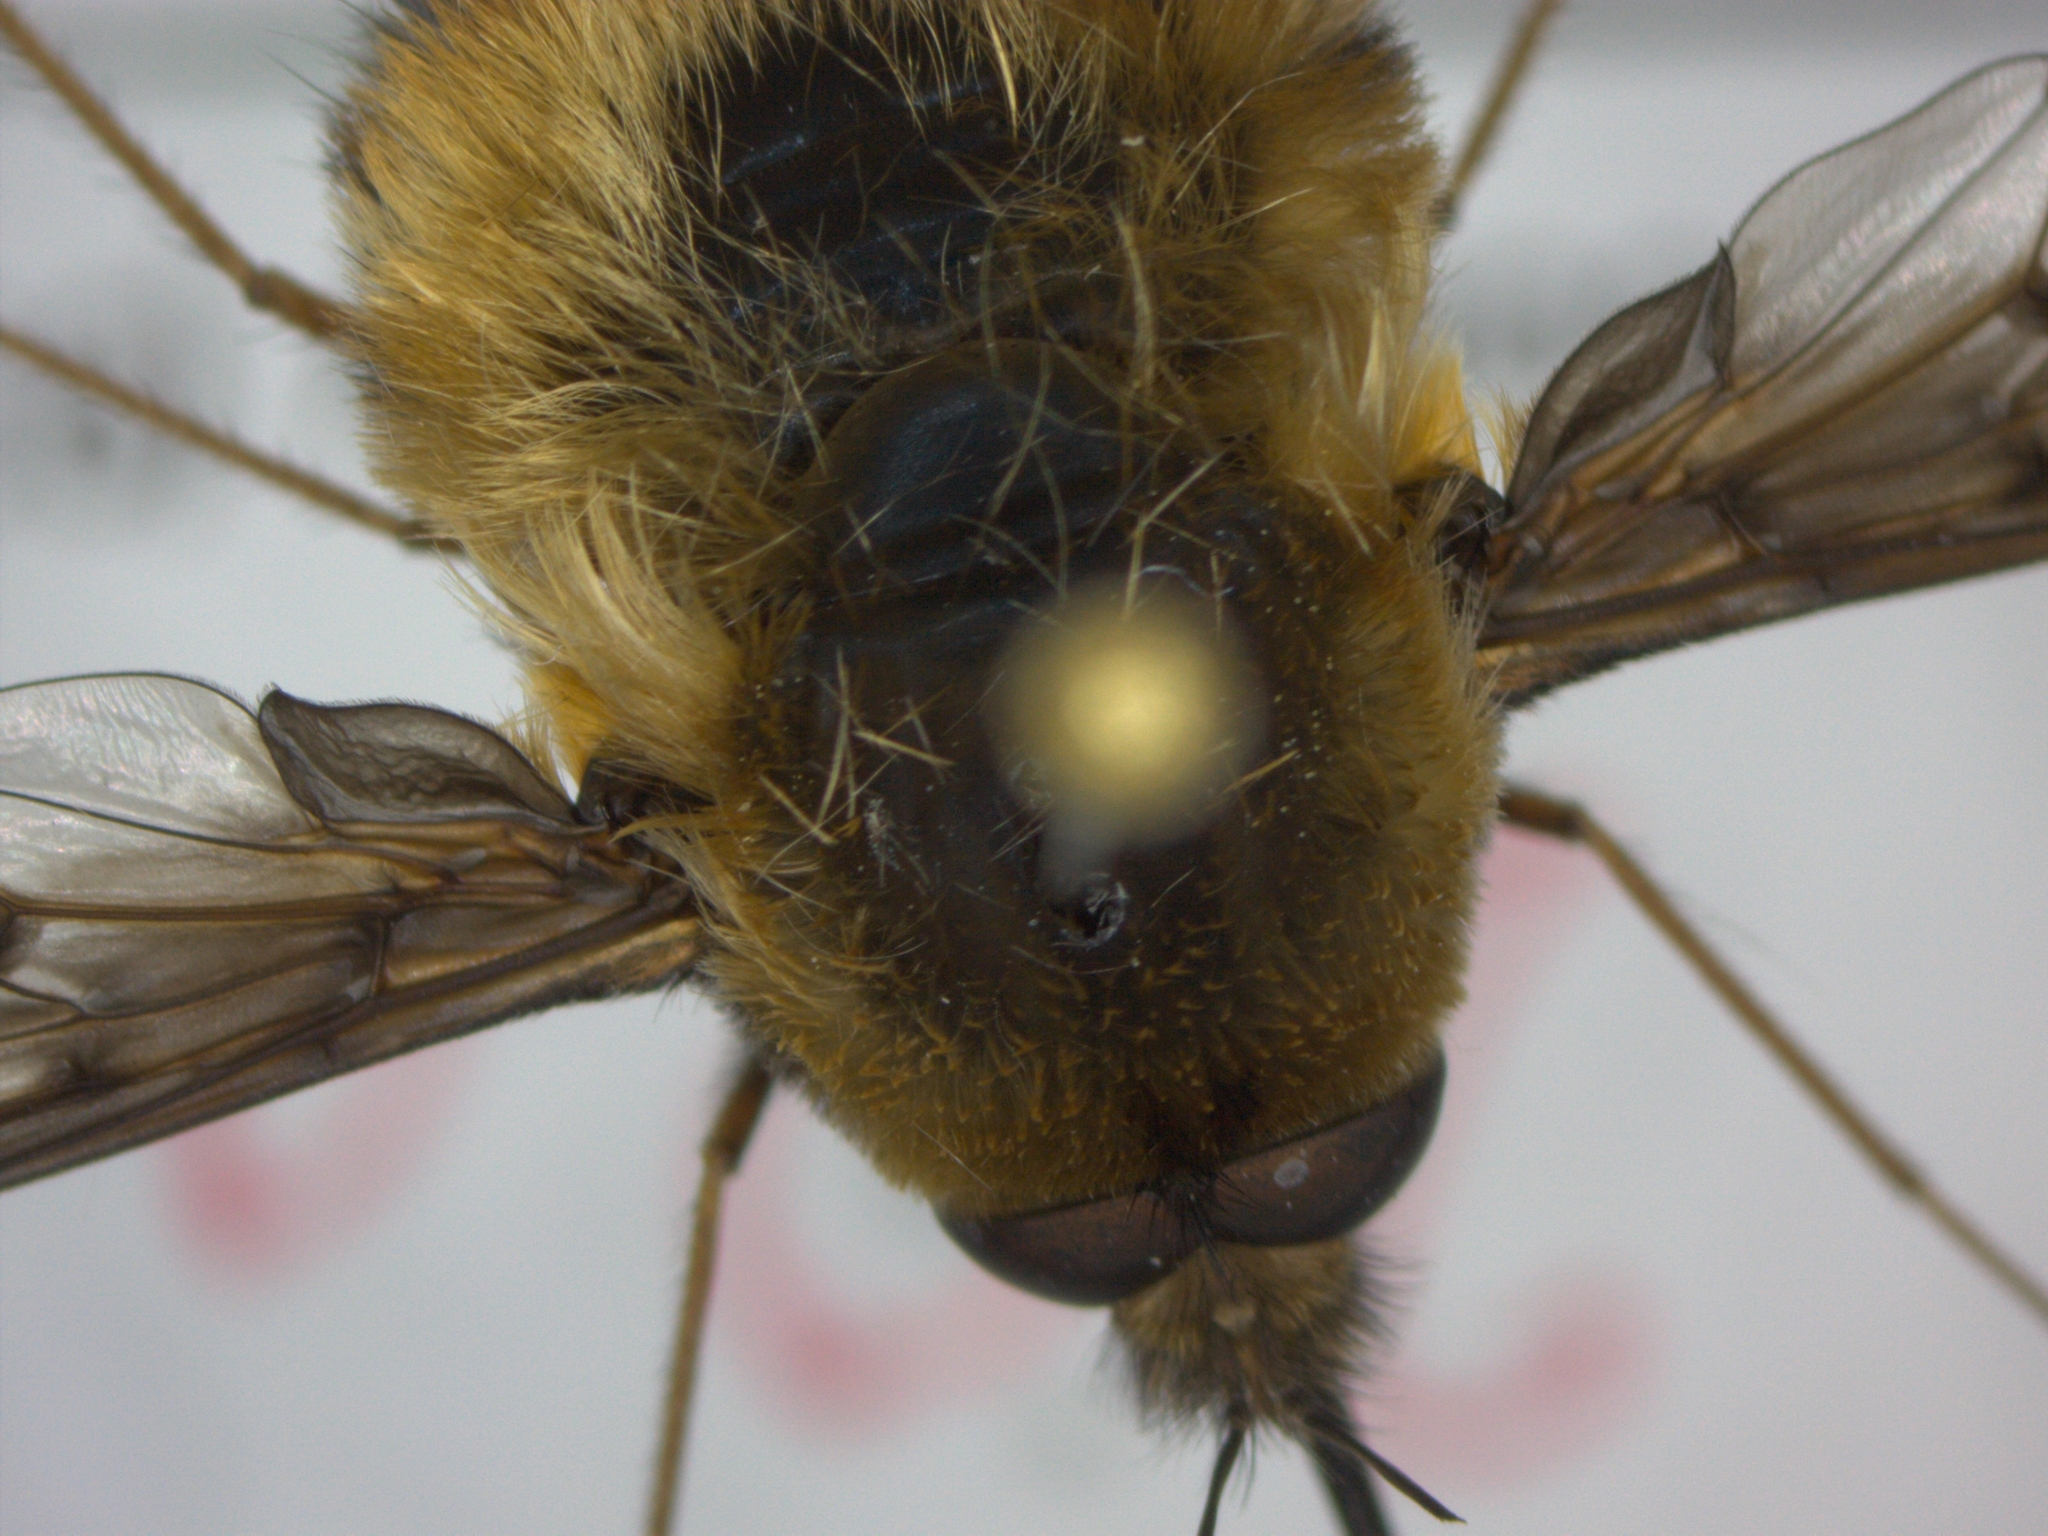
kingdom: Animalia
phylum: Arthropoda
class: Insecta
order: Diptera
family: Bombyliidae
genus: Bombylius
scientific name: Bombylius discolor
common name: Dotted bee-fly
